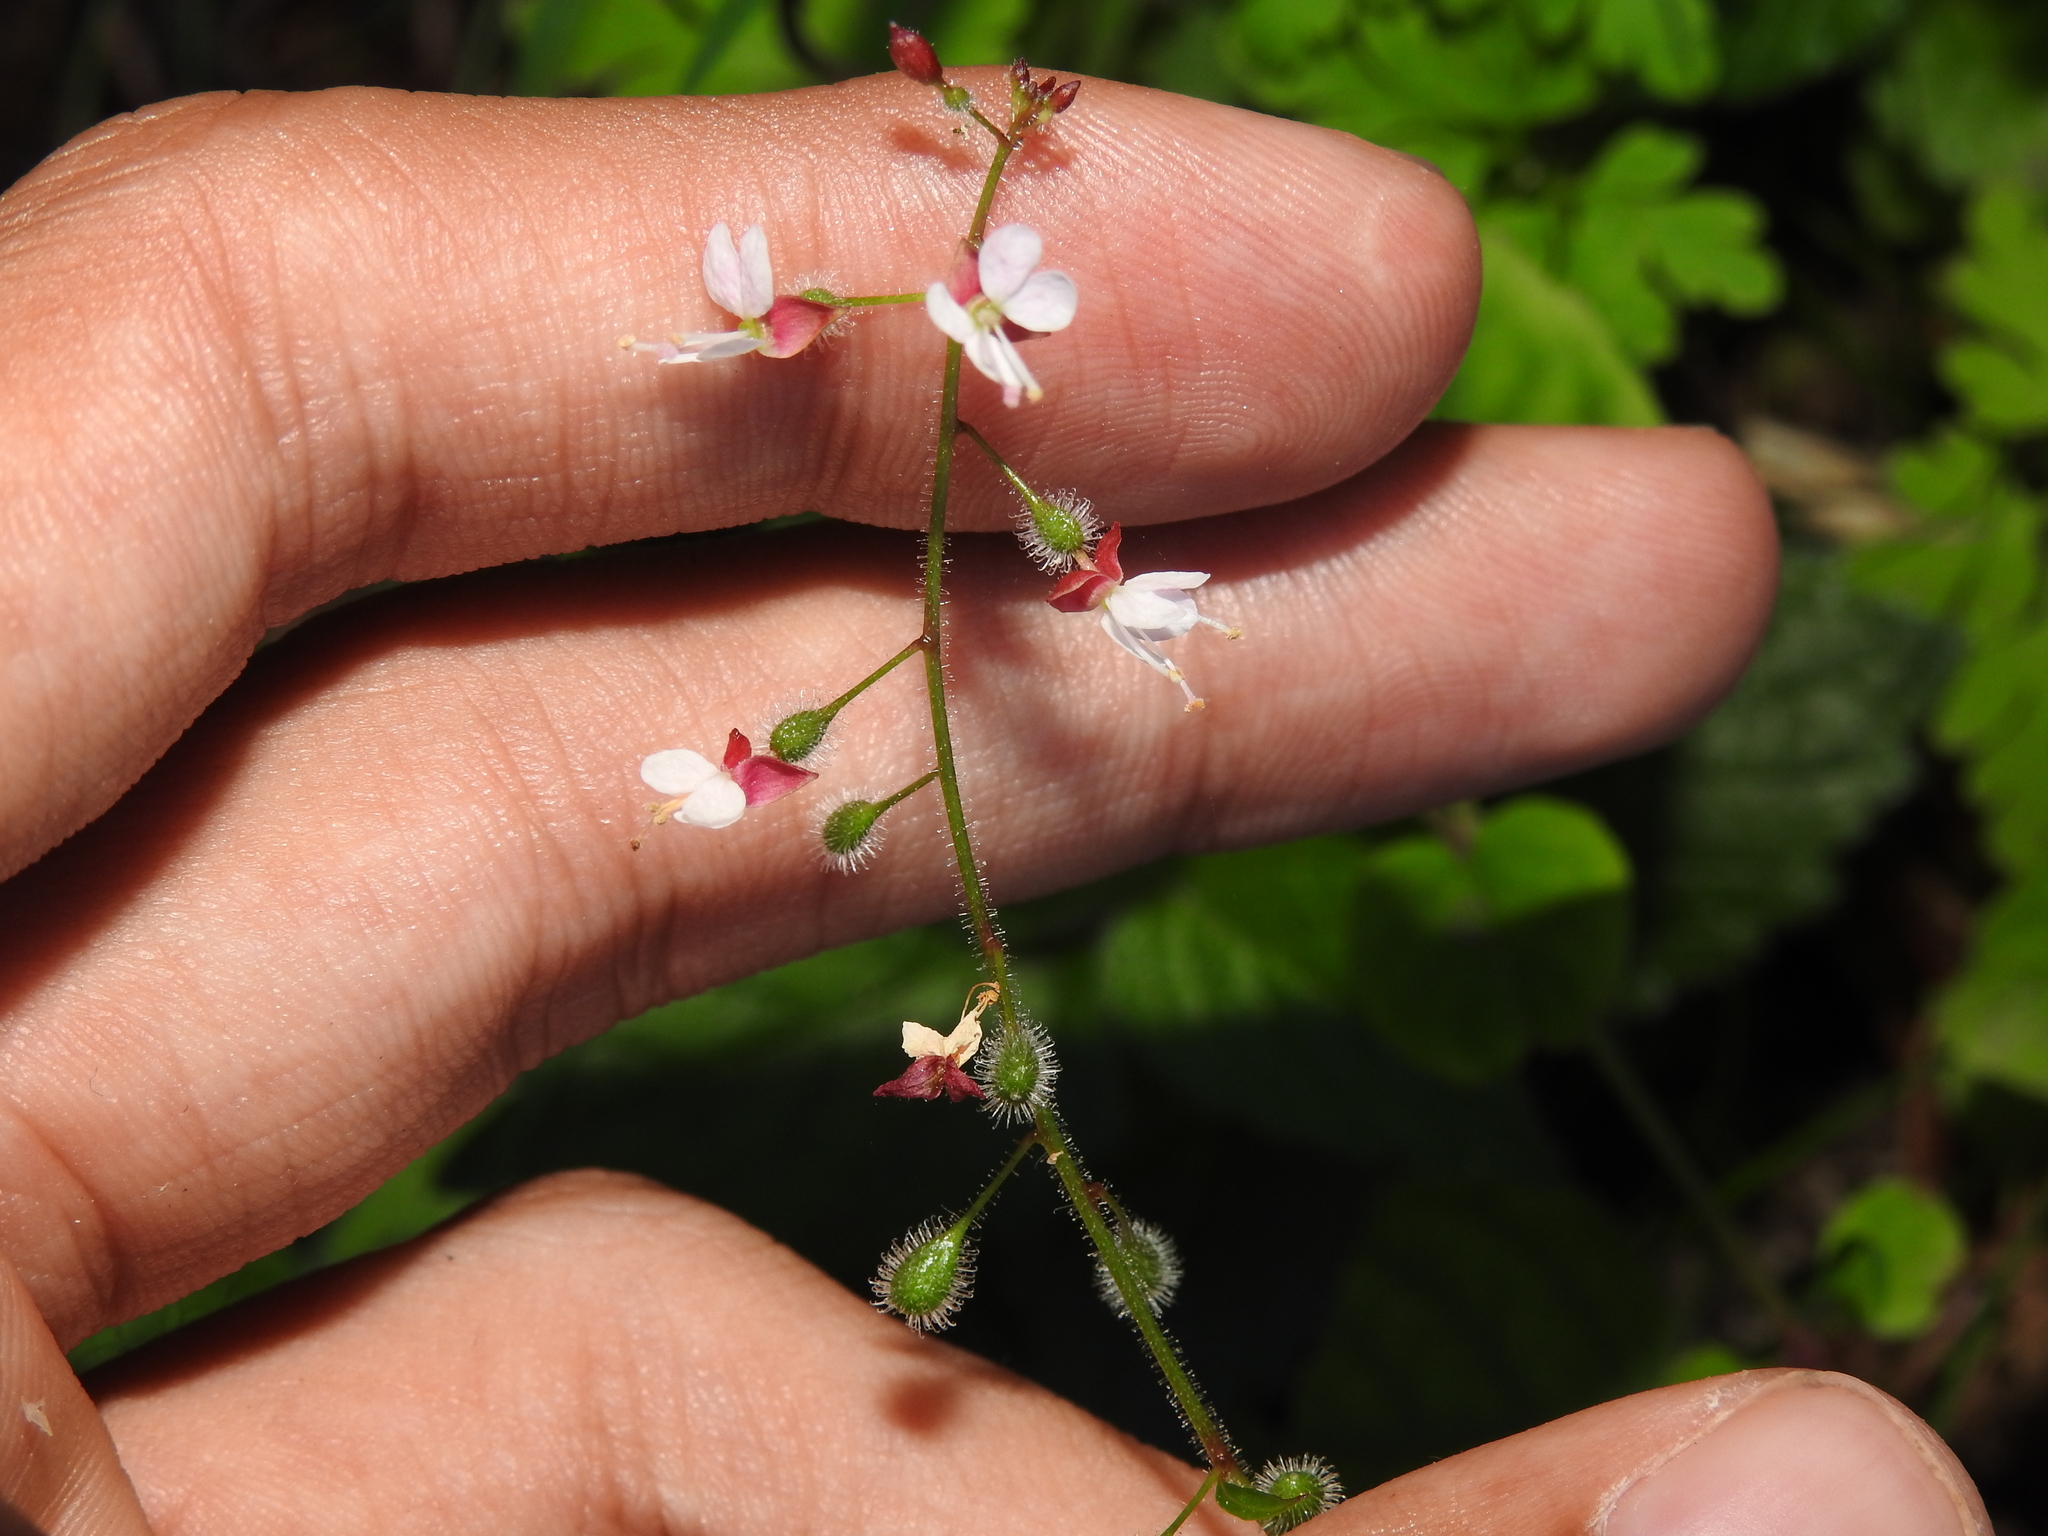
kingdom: Plantae
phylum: Tracheophyta
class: Magnoliopsida
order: Myrtales
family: Onagraceae
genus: Circaea
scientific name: Circaea lutetiana
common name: Enchanter's-nightshade
